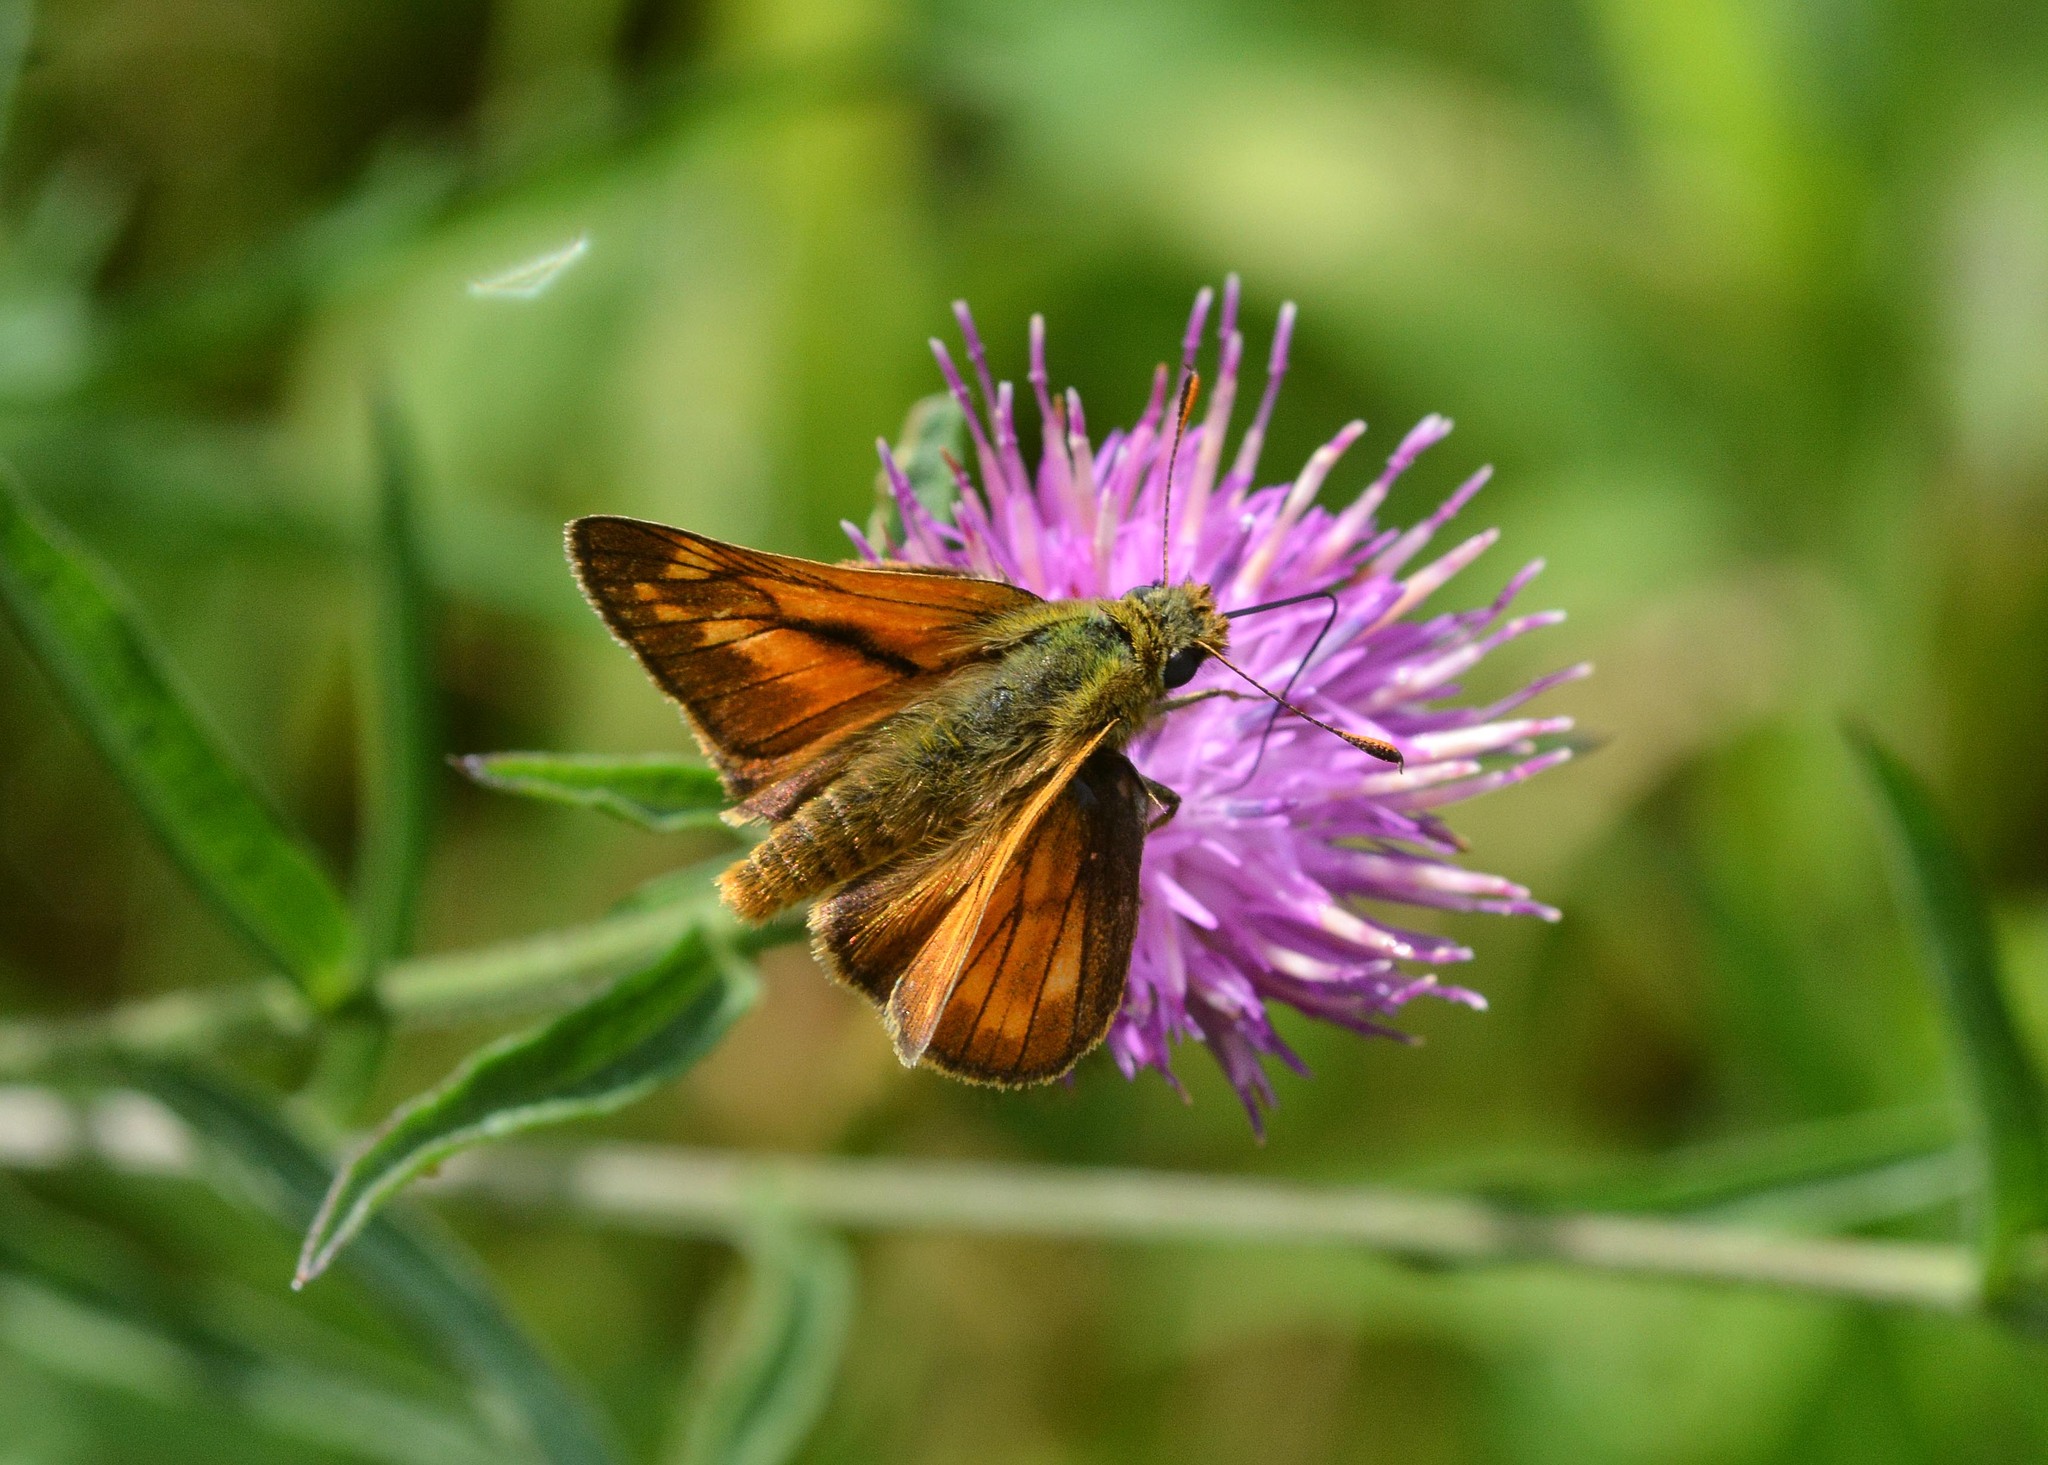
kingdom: Animalia
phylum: Arthropoda
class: Insecta
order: Lepidoptera
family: Hesperiidae
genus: Ochlodes
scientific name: Ochlodes venata
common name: Large skipper
